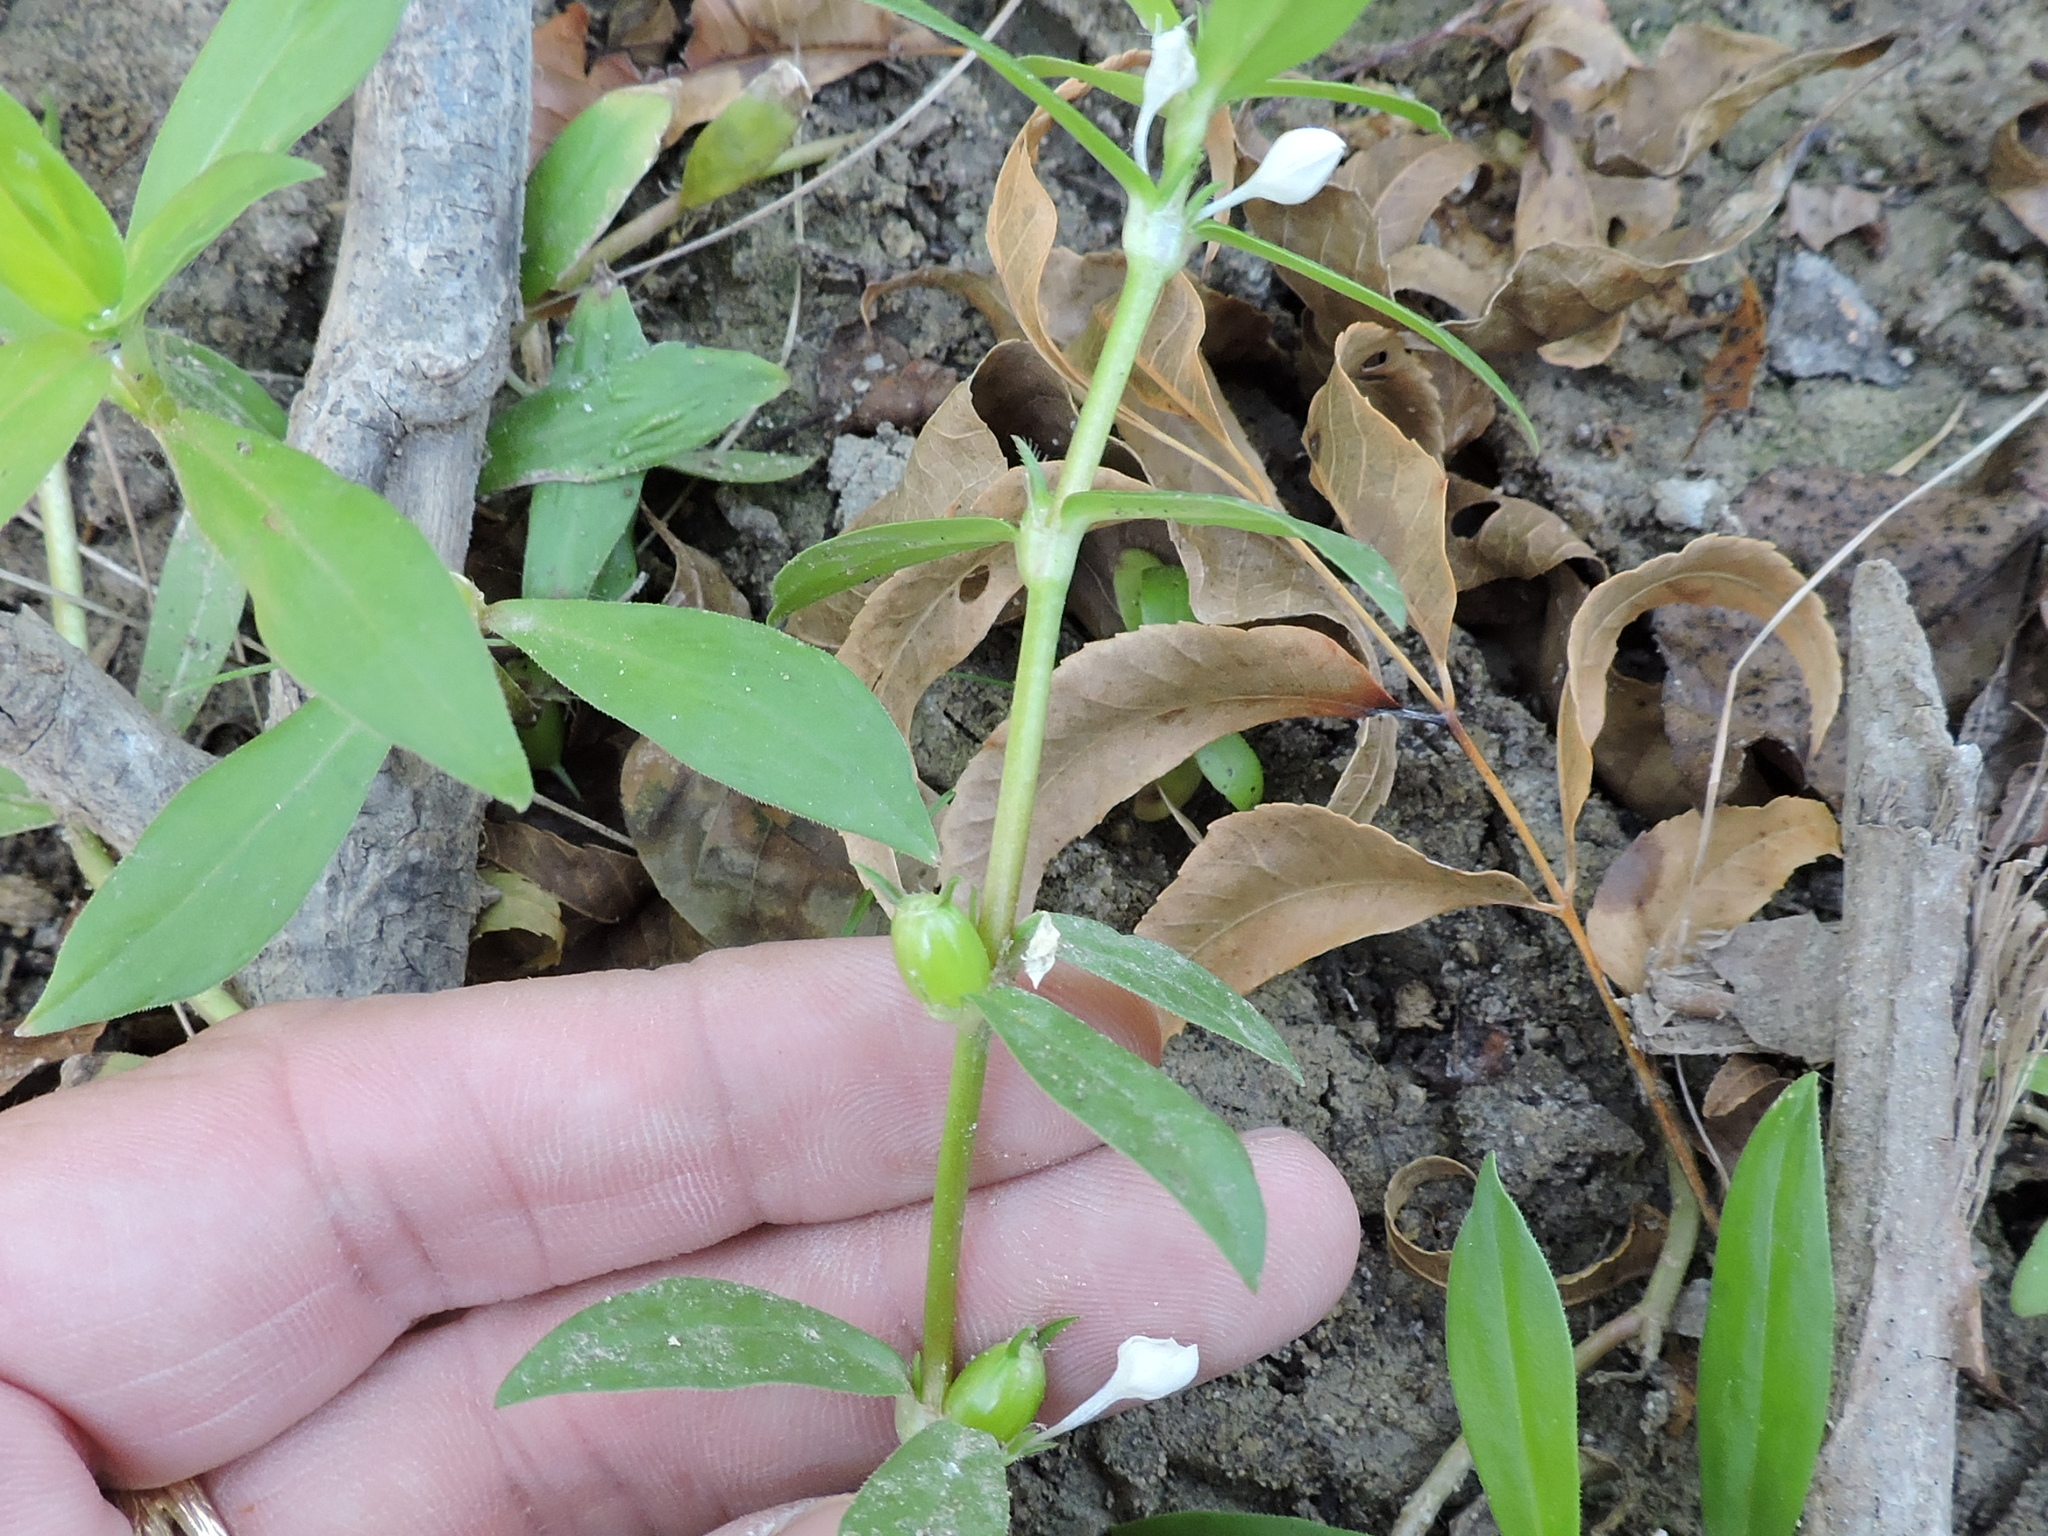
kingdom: Plantae
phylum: Tracheophyta
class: Magnoliopsida
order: Gentianales
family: Rubiaceae
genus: Diodia
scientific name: Diodia virginiana
